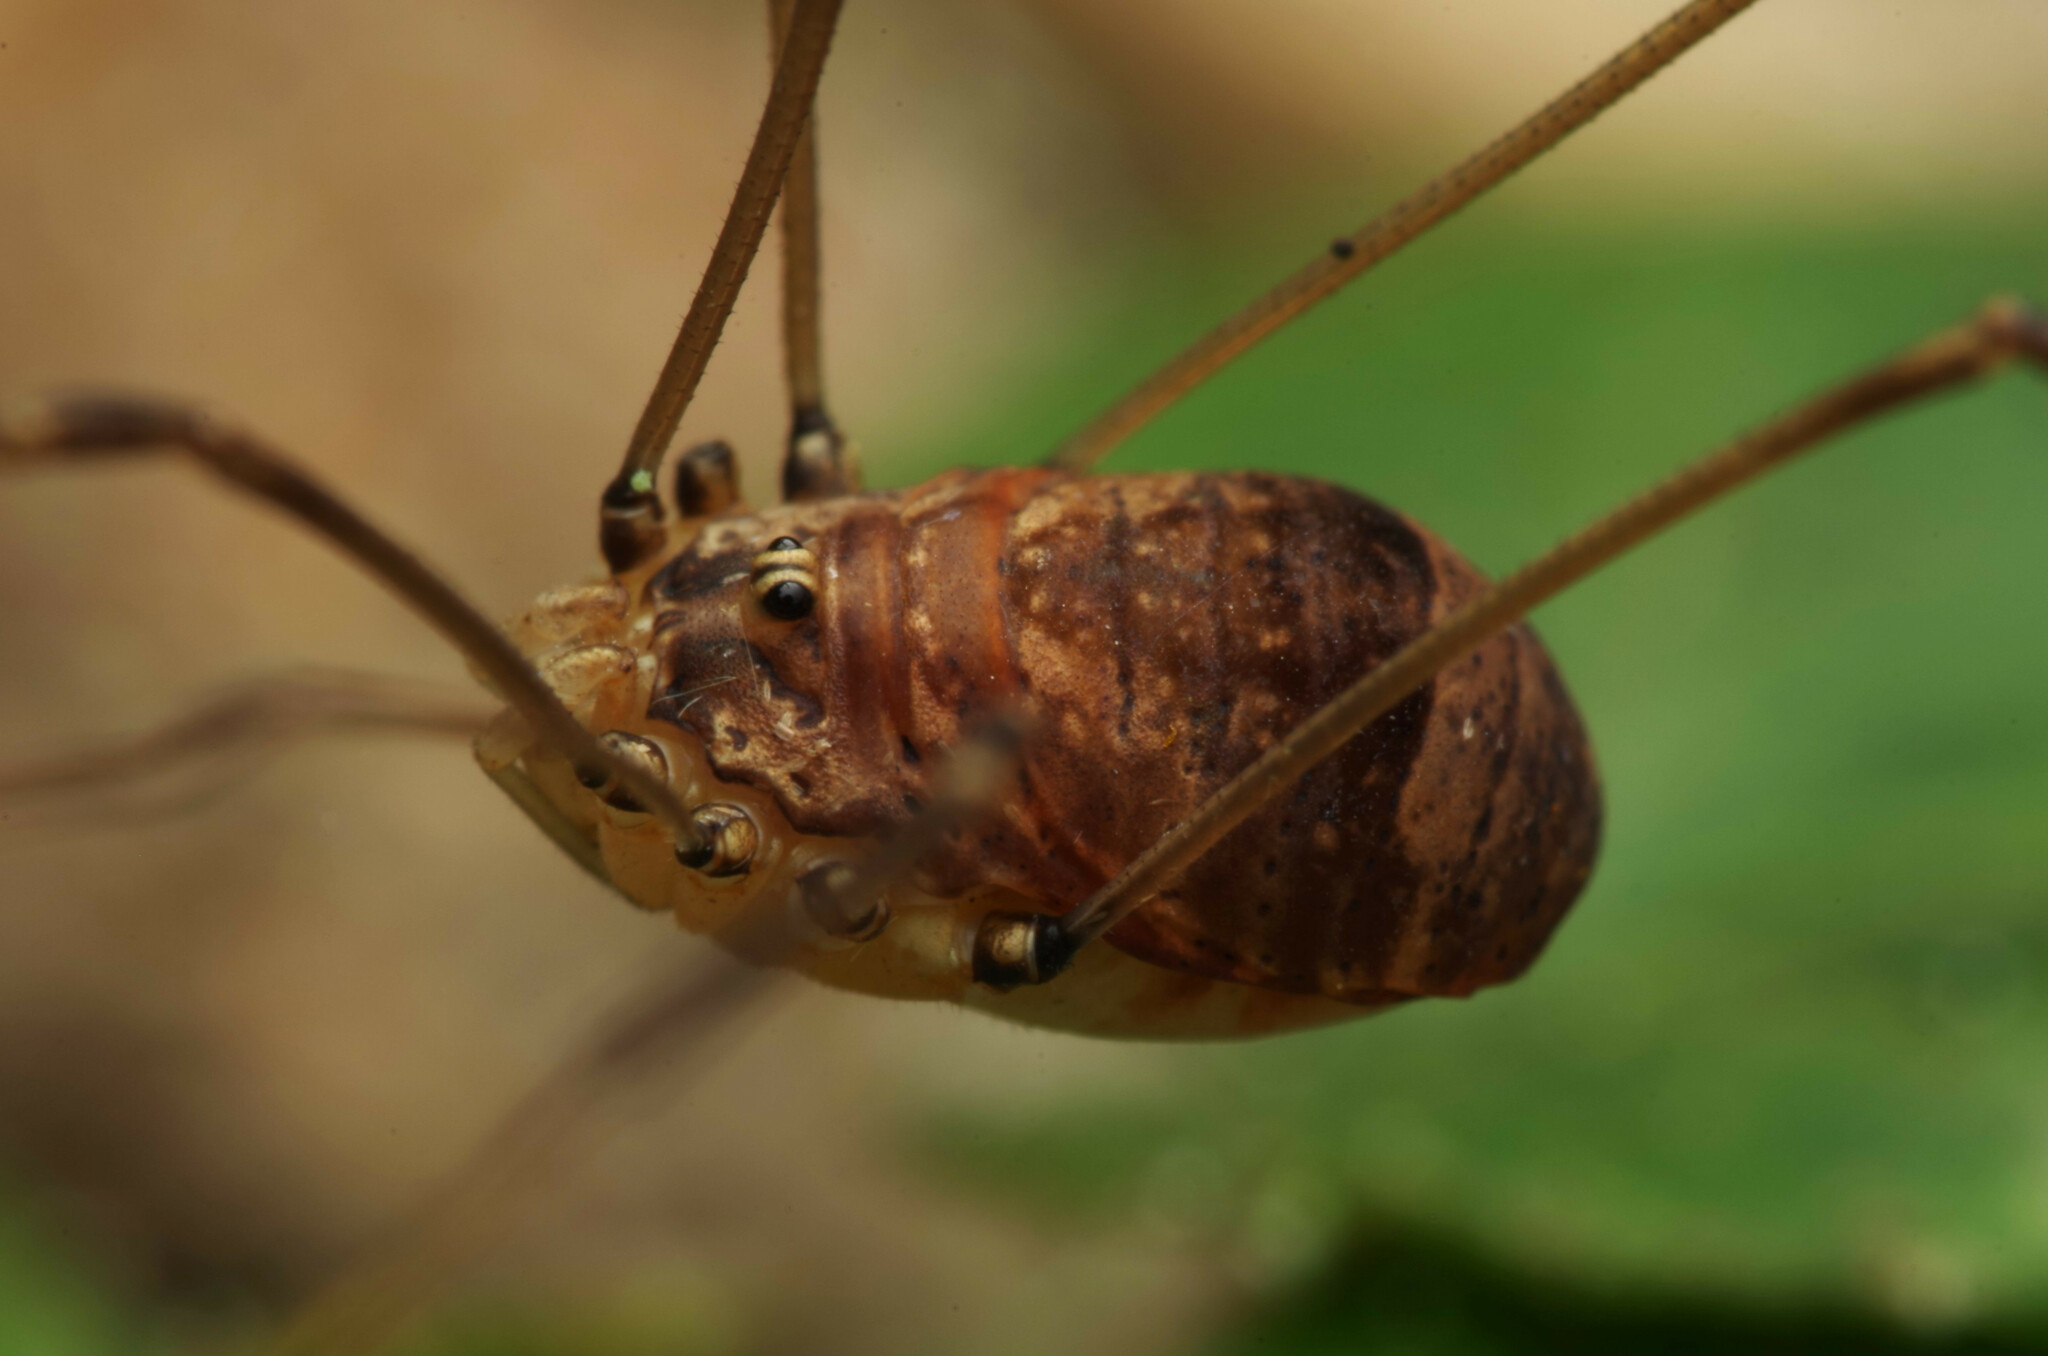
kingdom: Animalia
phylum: Arthropoda
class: Arachnida
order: Opiliones
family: Sclerosomatidae
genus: Leiobunum
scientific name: Leiobunum blackwalli
